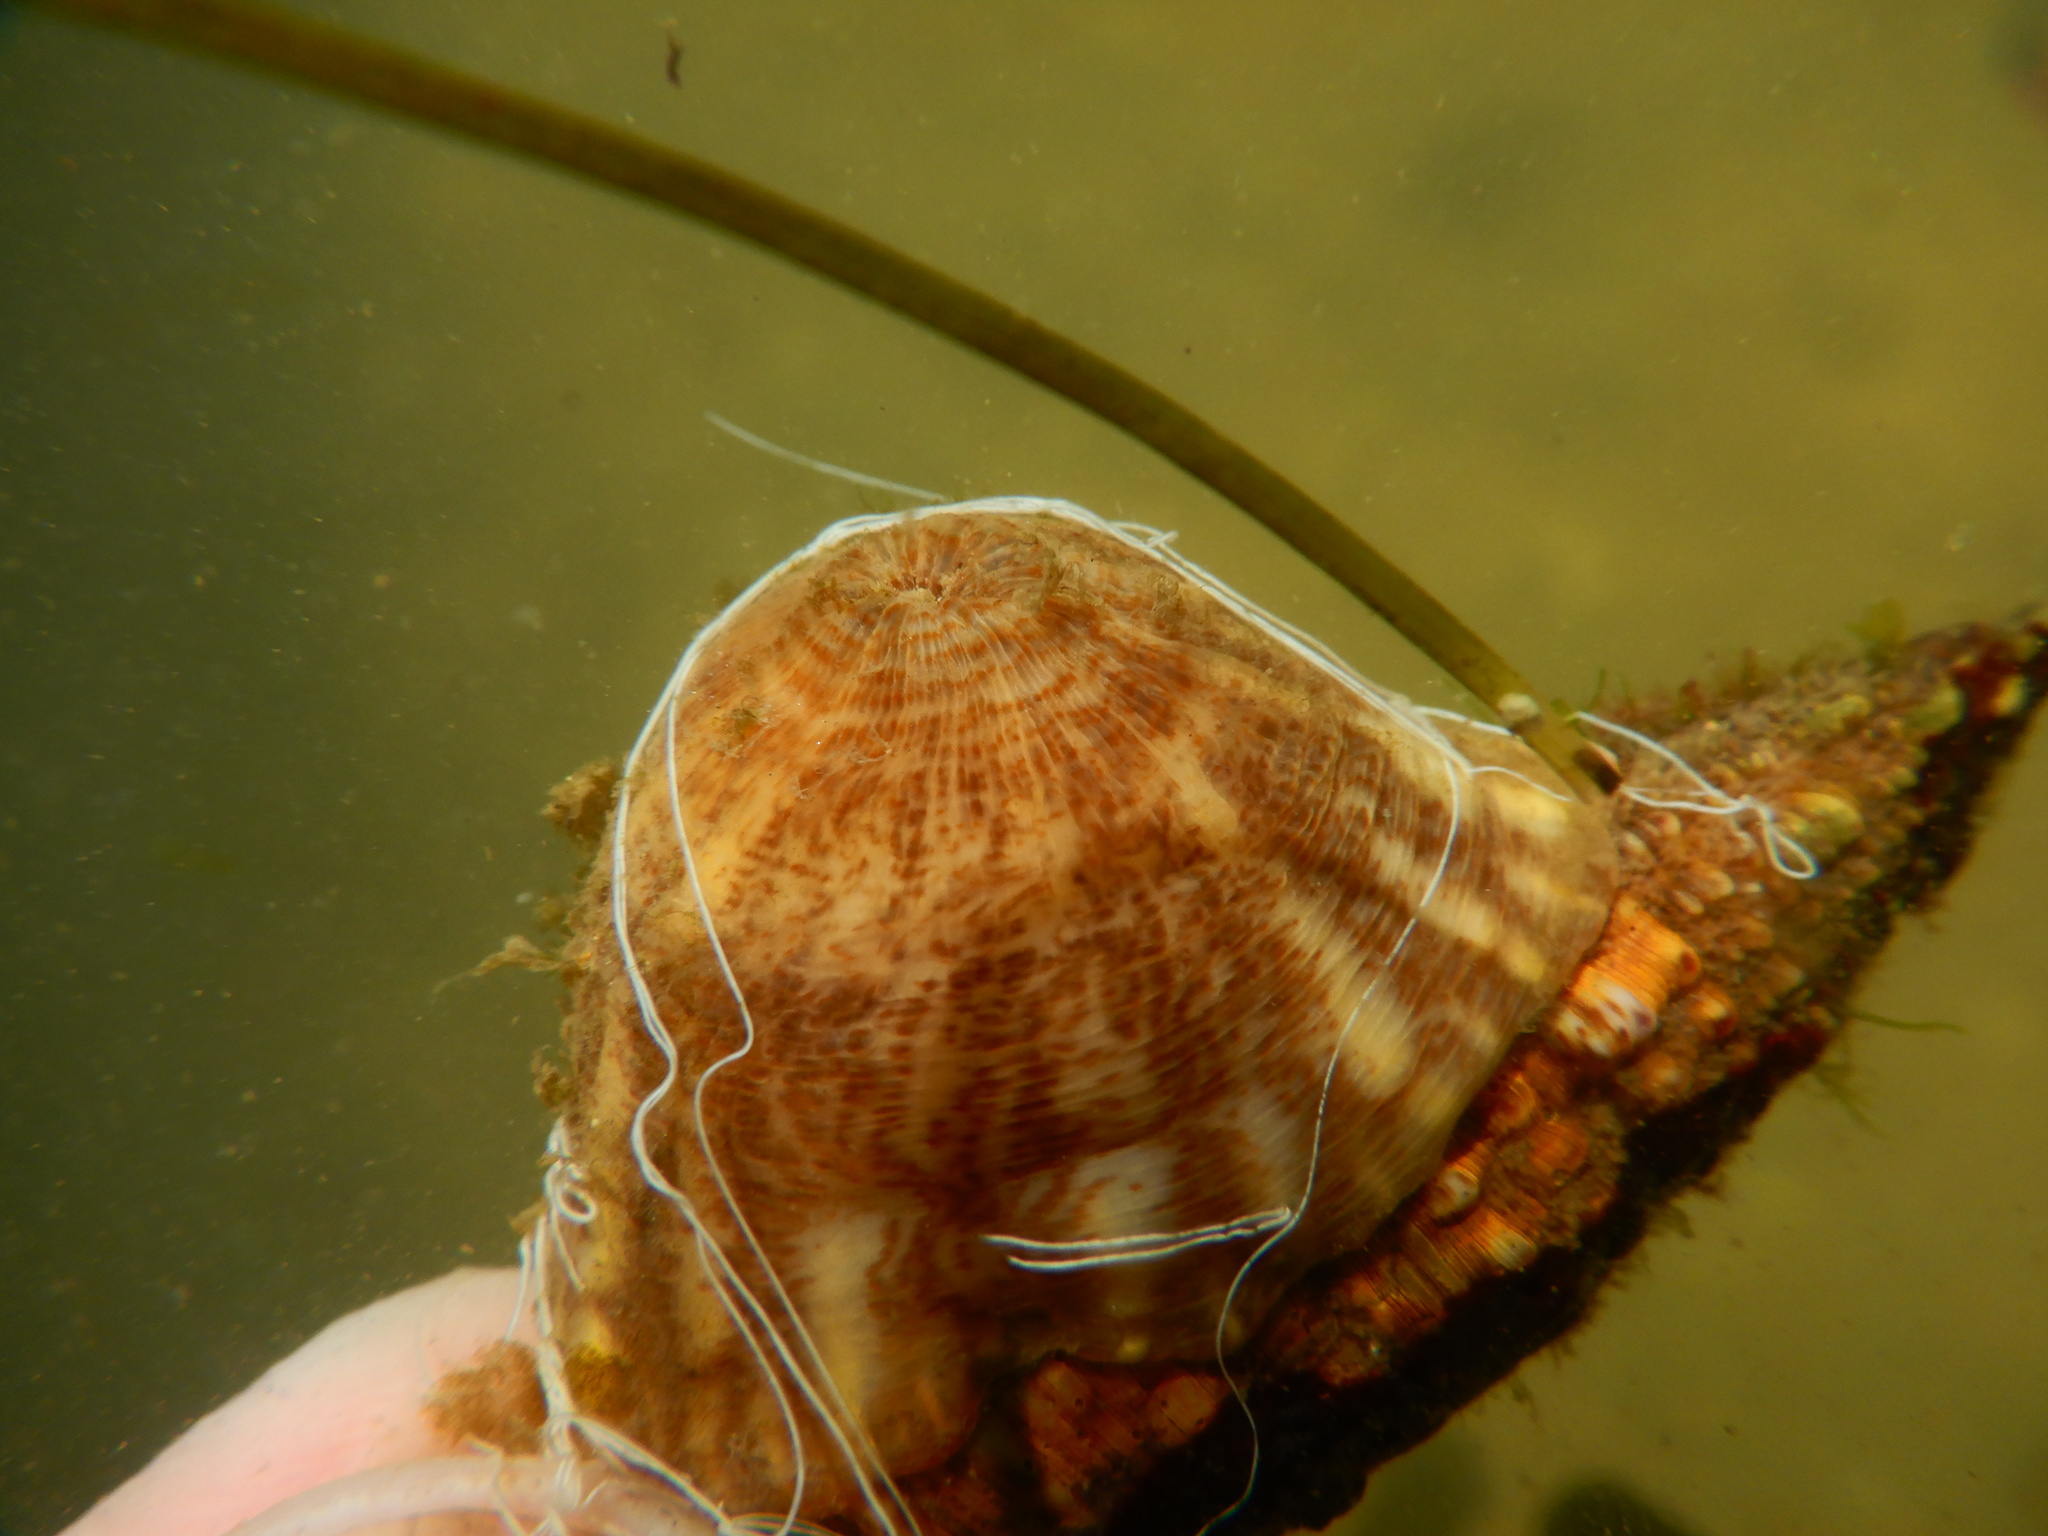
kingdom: Animalia
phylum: Cnidaria
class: Anthozoa
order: Actiniaria
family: Hormathiidae
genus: Calliactis
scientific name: Calliactis parasitica
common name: Parasitic anemone
